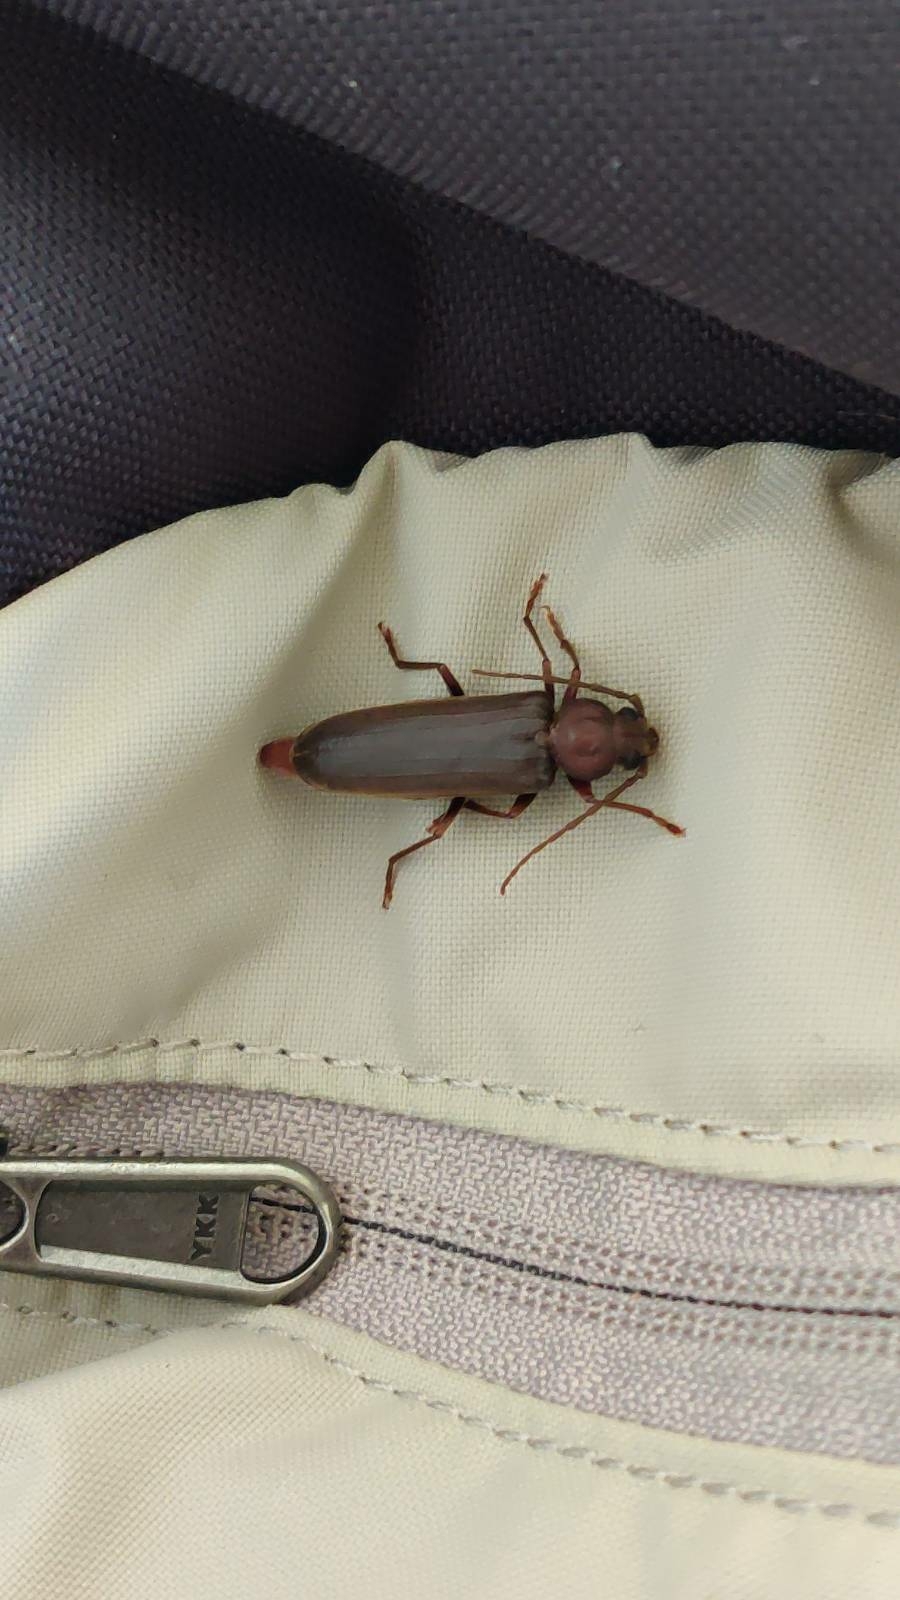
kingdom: Animalia
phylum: Arthropoda
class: Insecta
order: Coleoptera
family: Cerambycidae
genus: Arhopalus
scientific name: Arhopalus rusticus
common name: Rust pine borer
